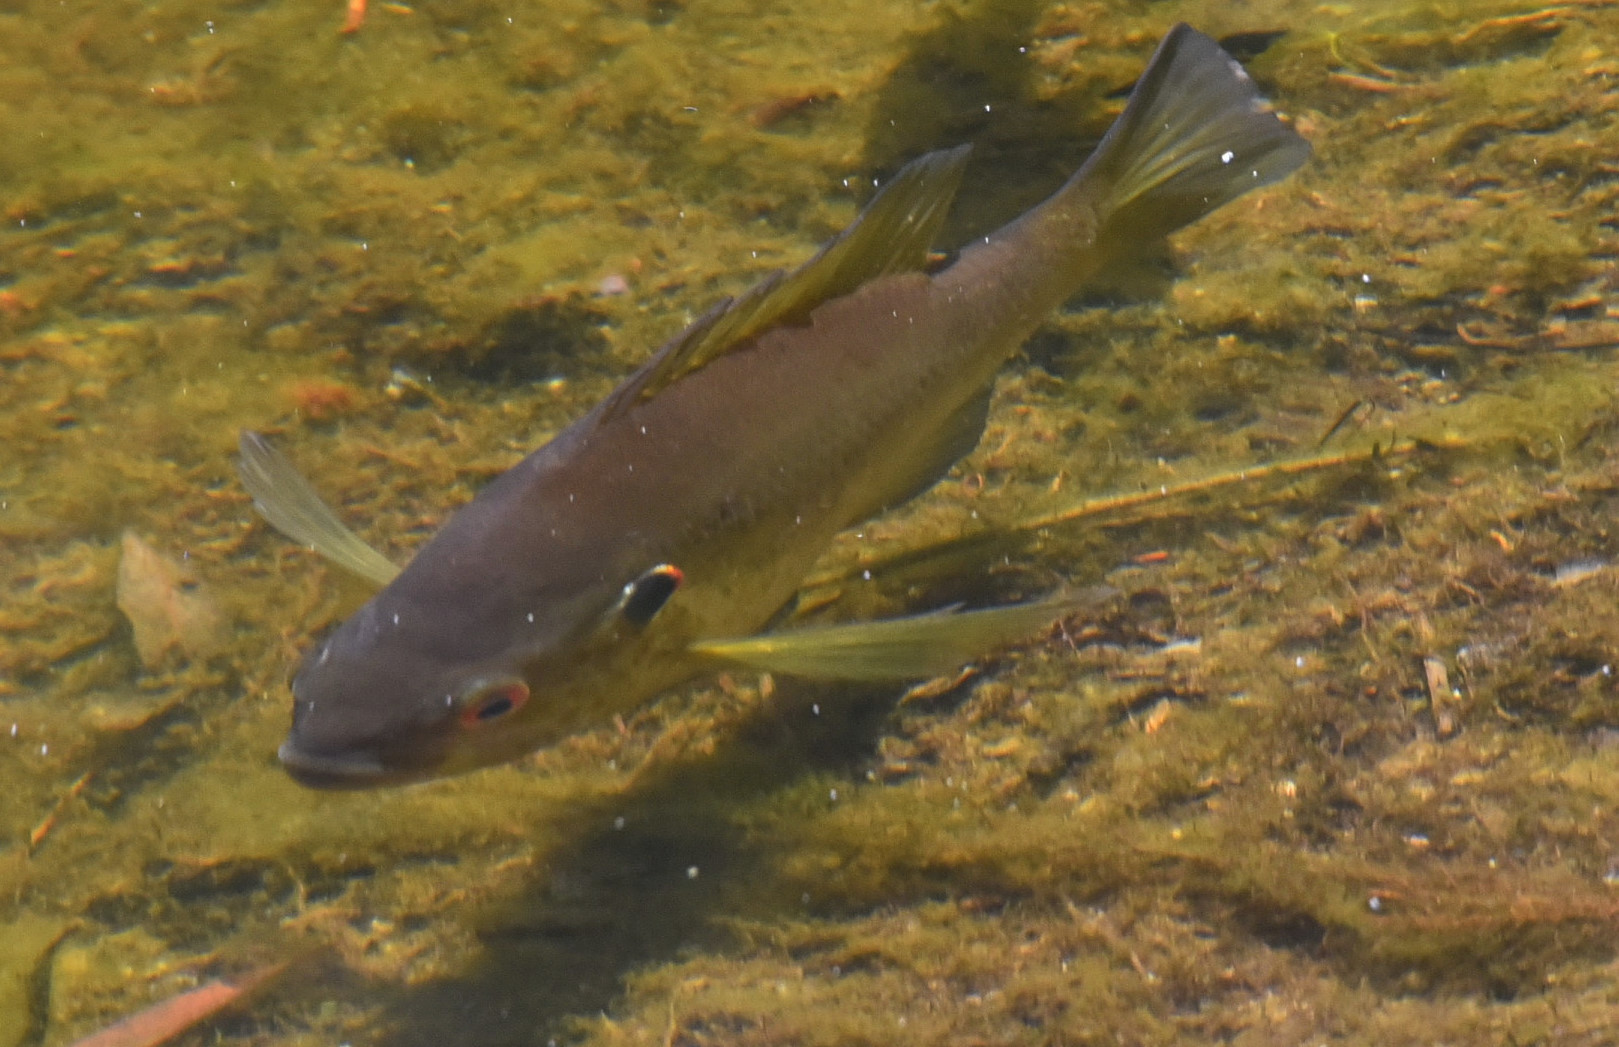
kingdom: Animalia
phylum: Chordata
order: Perciformes
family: Centrarchidae
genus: Lepomis
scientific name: Lepomis microlophus
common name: Redear sunfish
